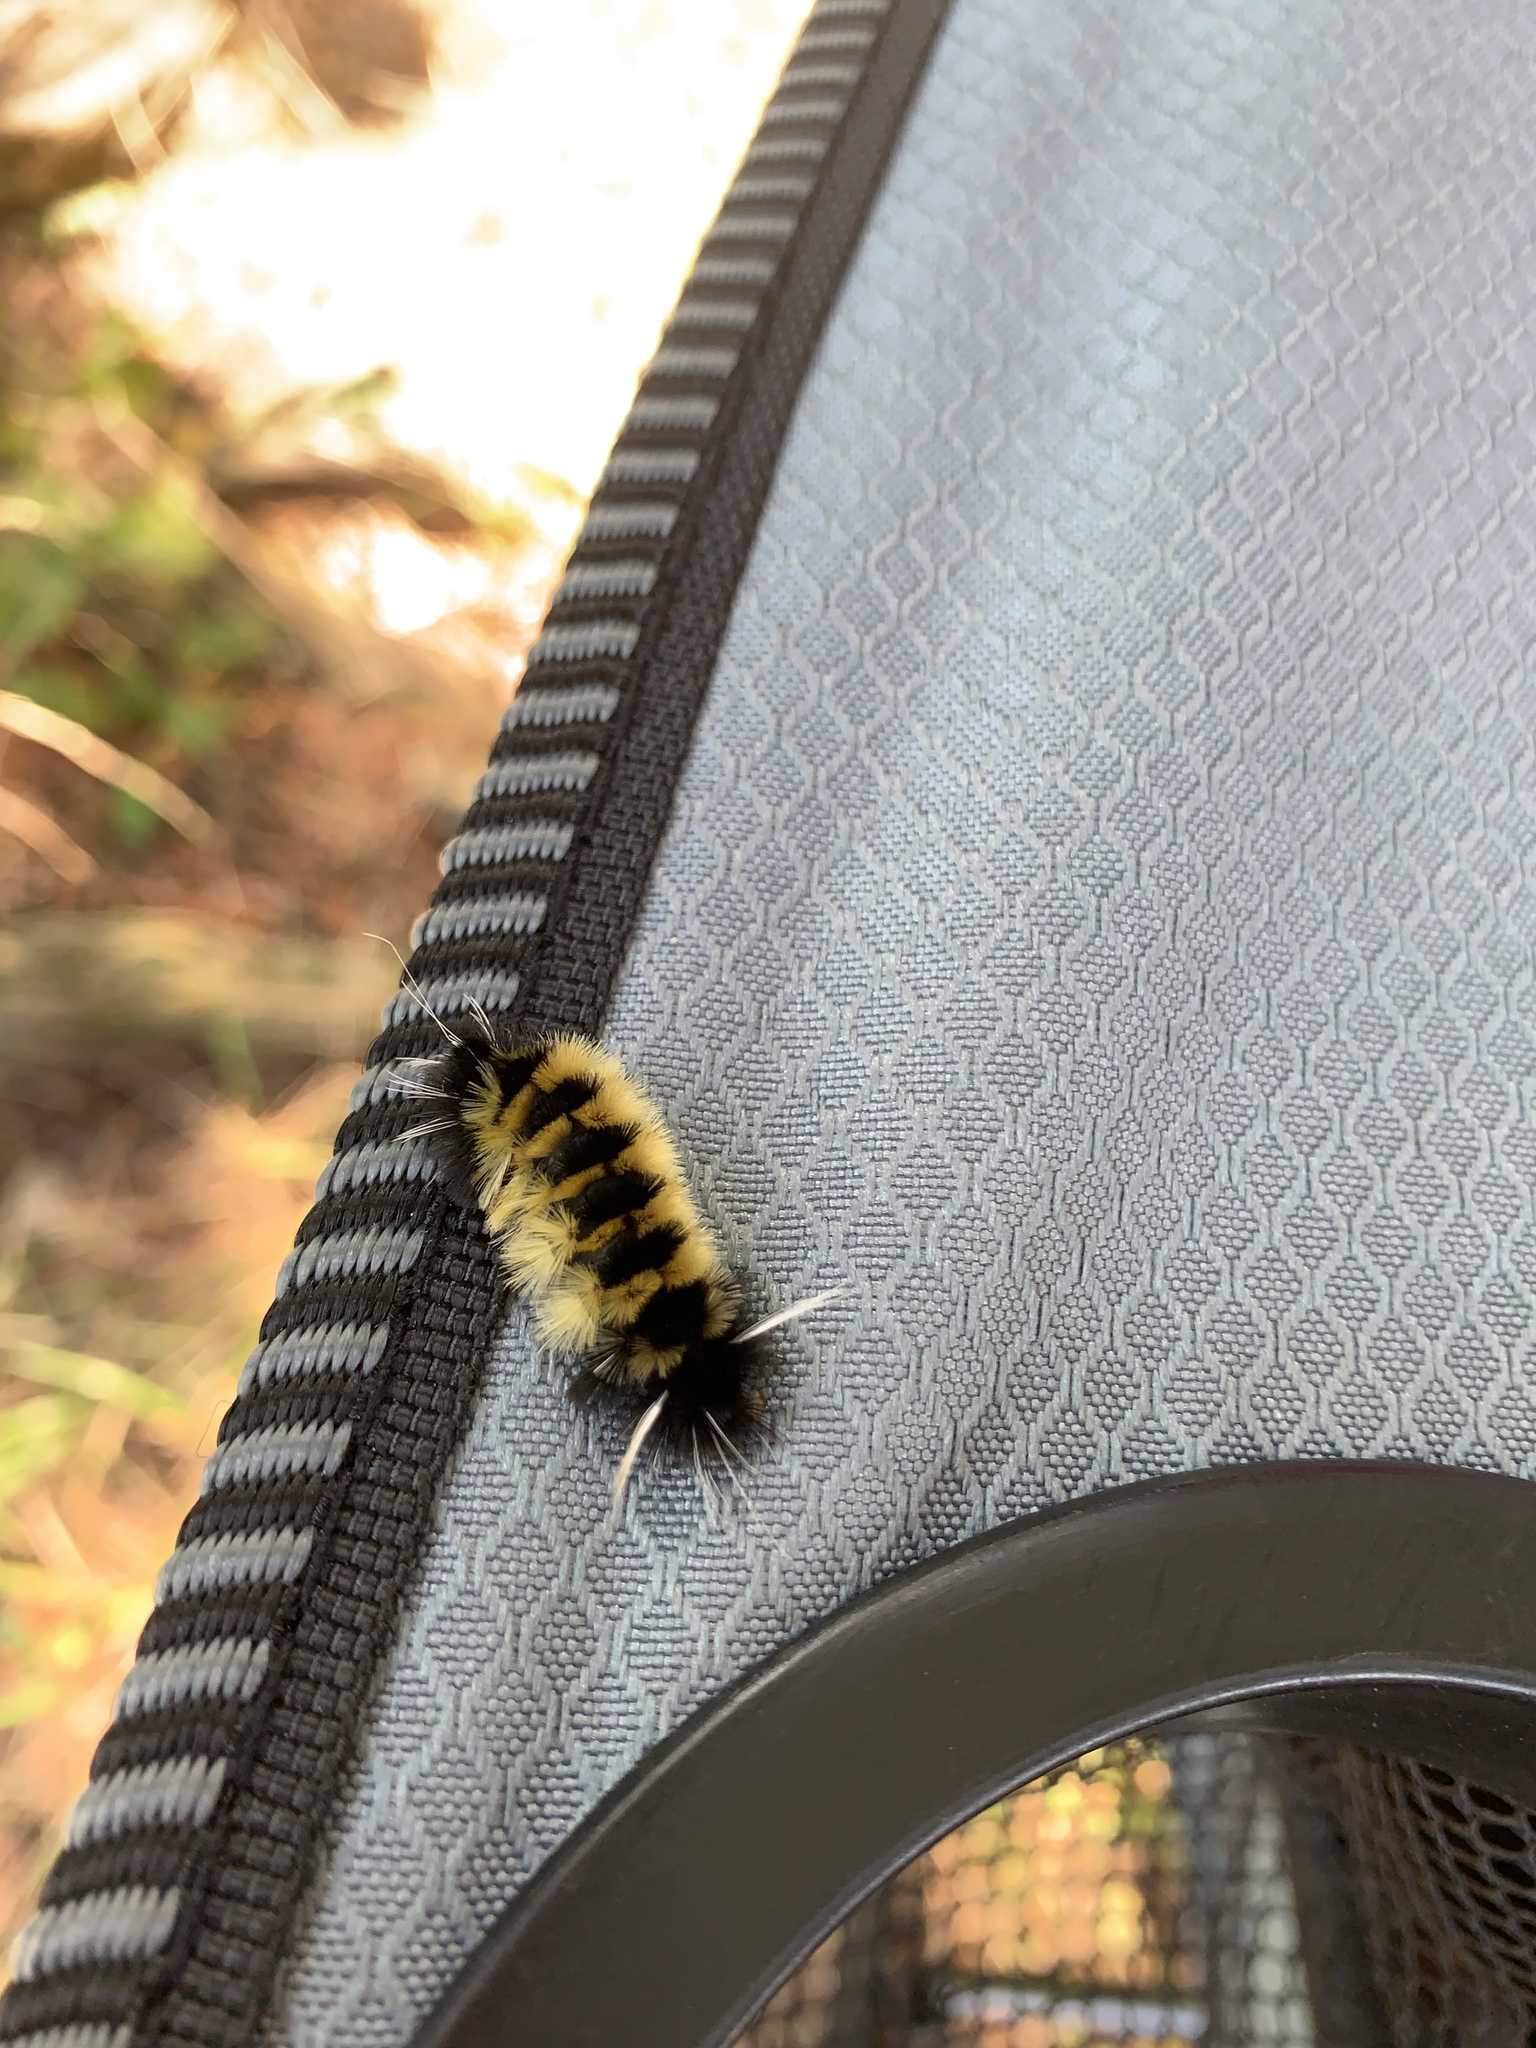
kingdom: Animalia
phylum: Arthropoda
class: Insecta
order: Lepidoptera
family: Erebidae
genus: Lophocampa
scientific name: Lophocampa maculata
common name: Spotted tussock moth
